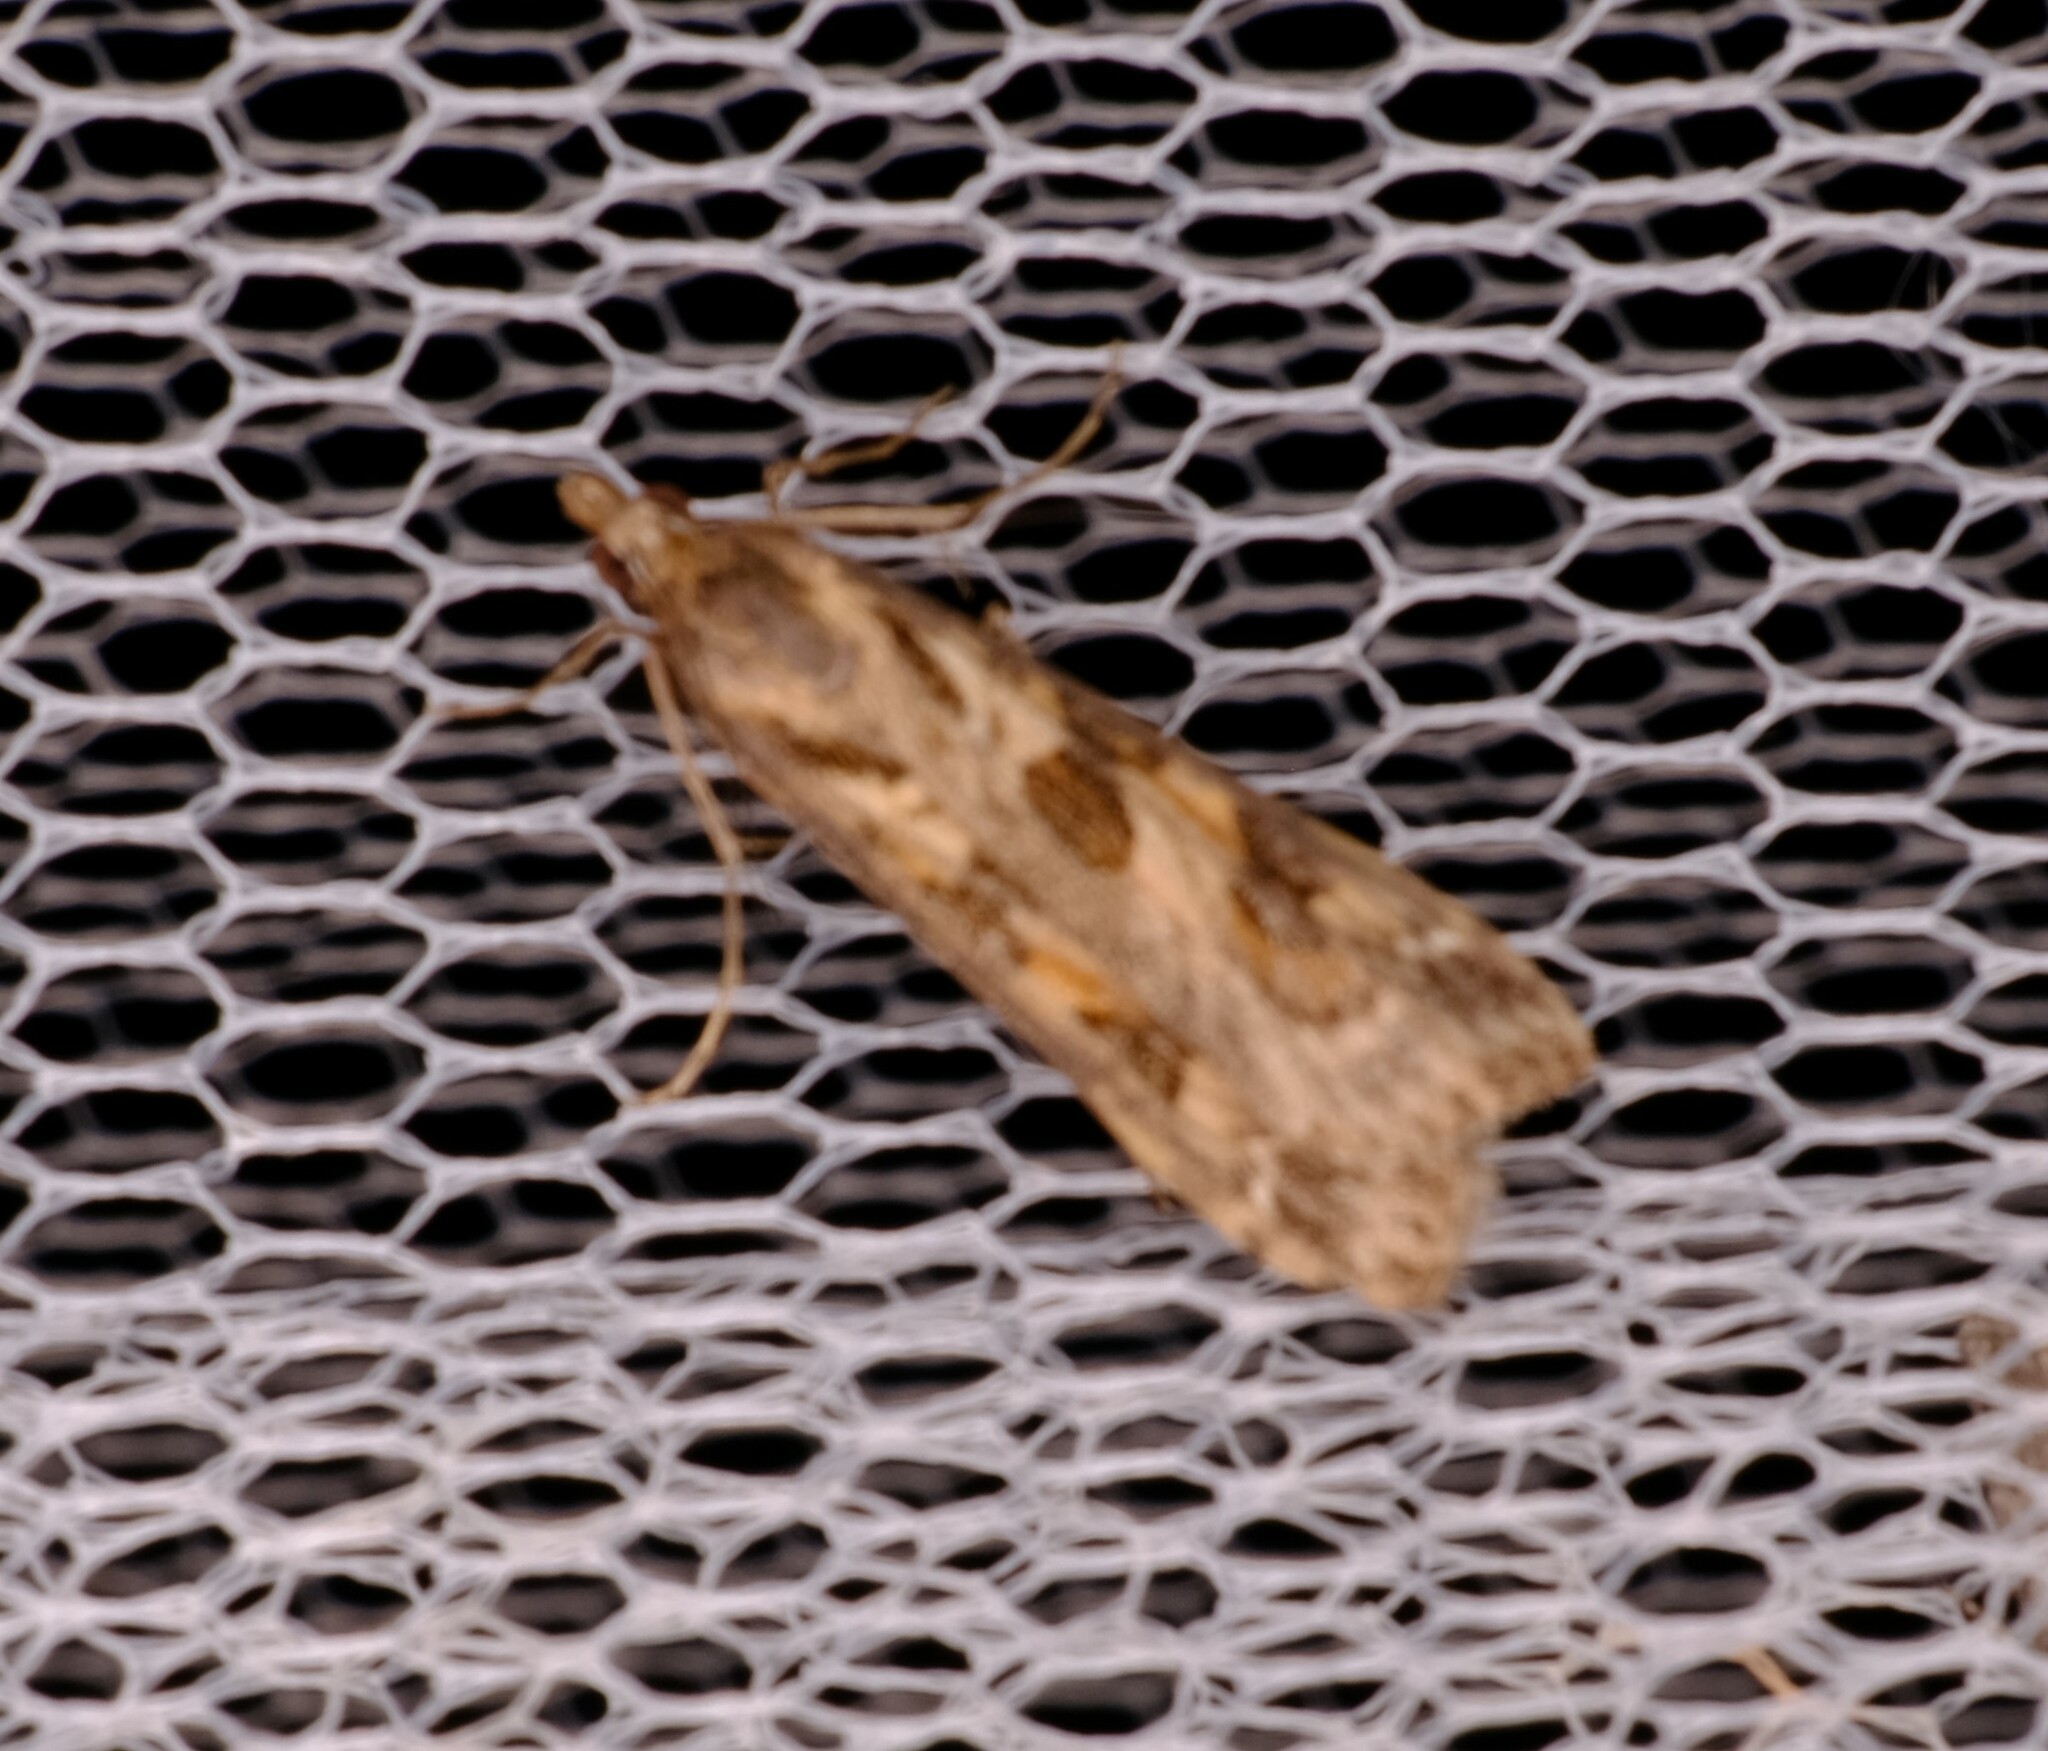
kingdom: Animalia
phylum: Arthropoda
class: Insecta
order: Lepidoptera
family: Crambidae
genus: Nomophila
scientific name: Nomophila corticalis
